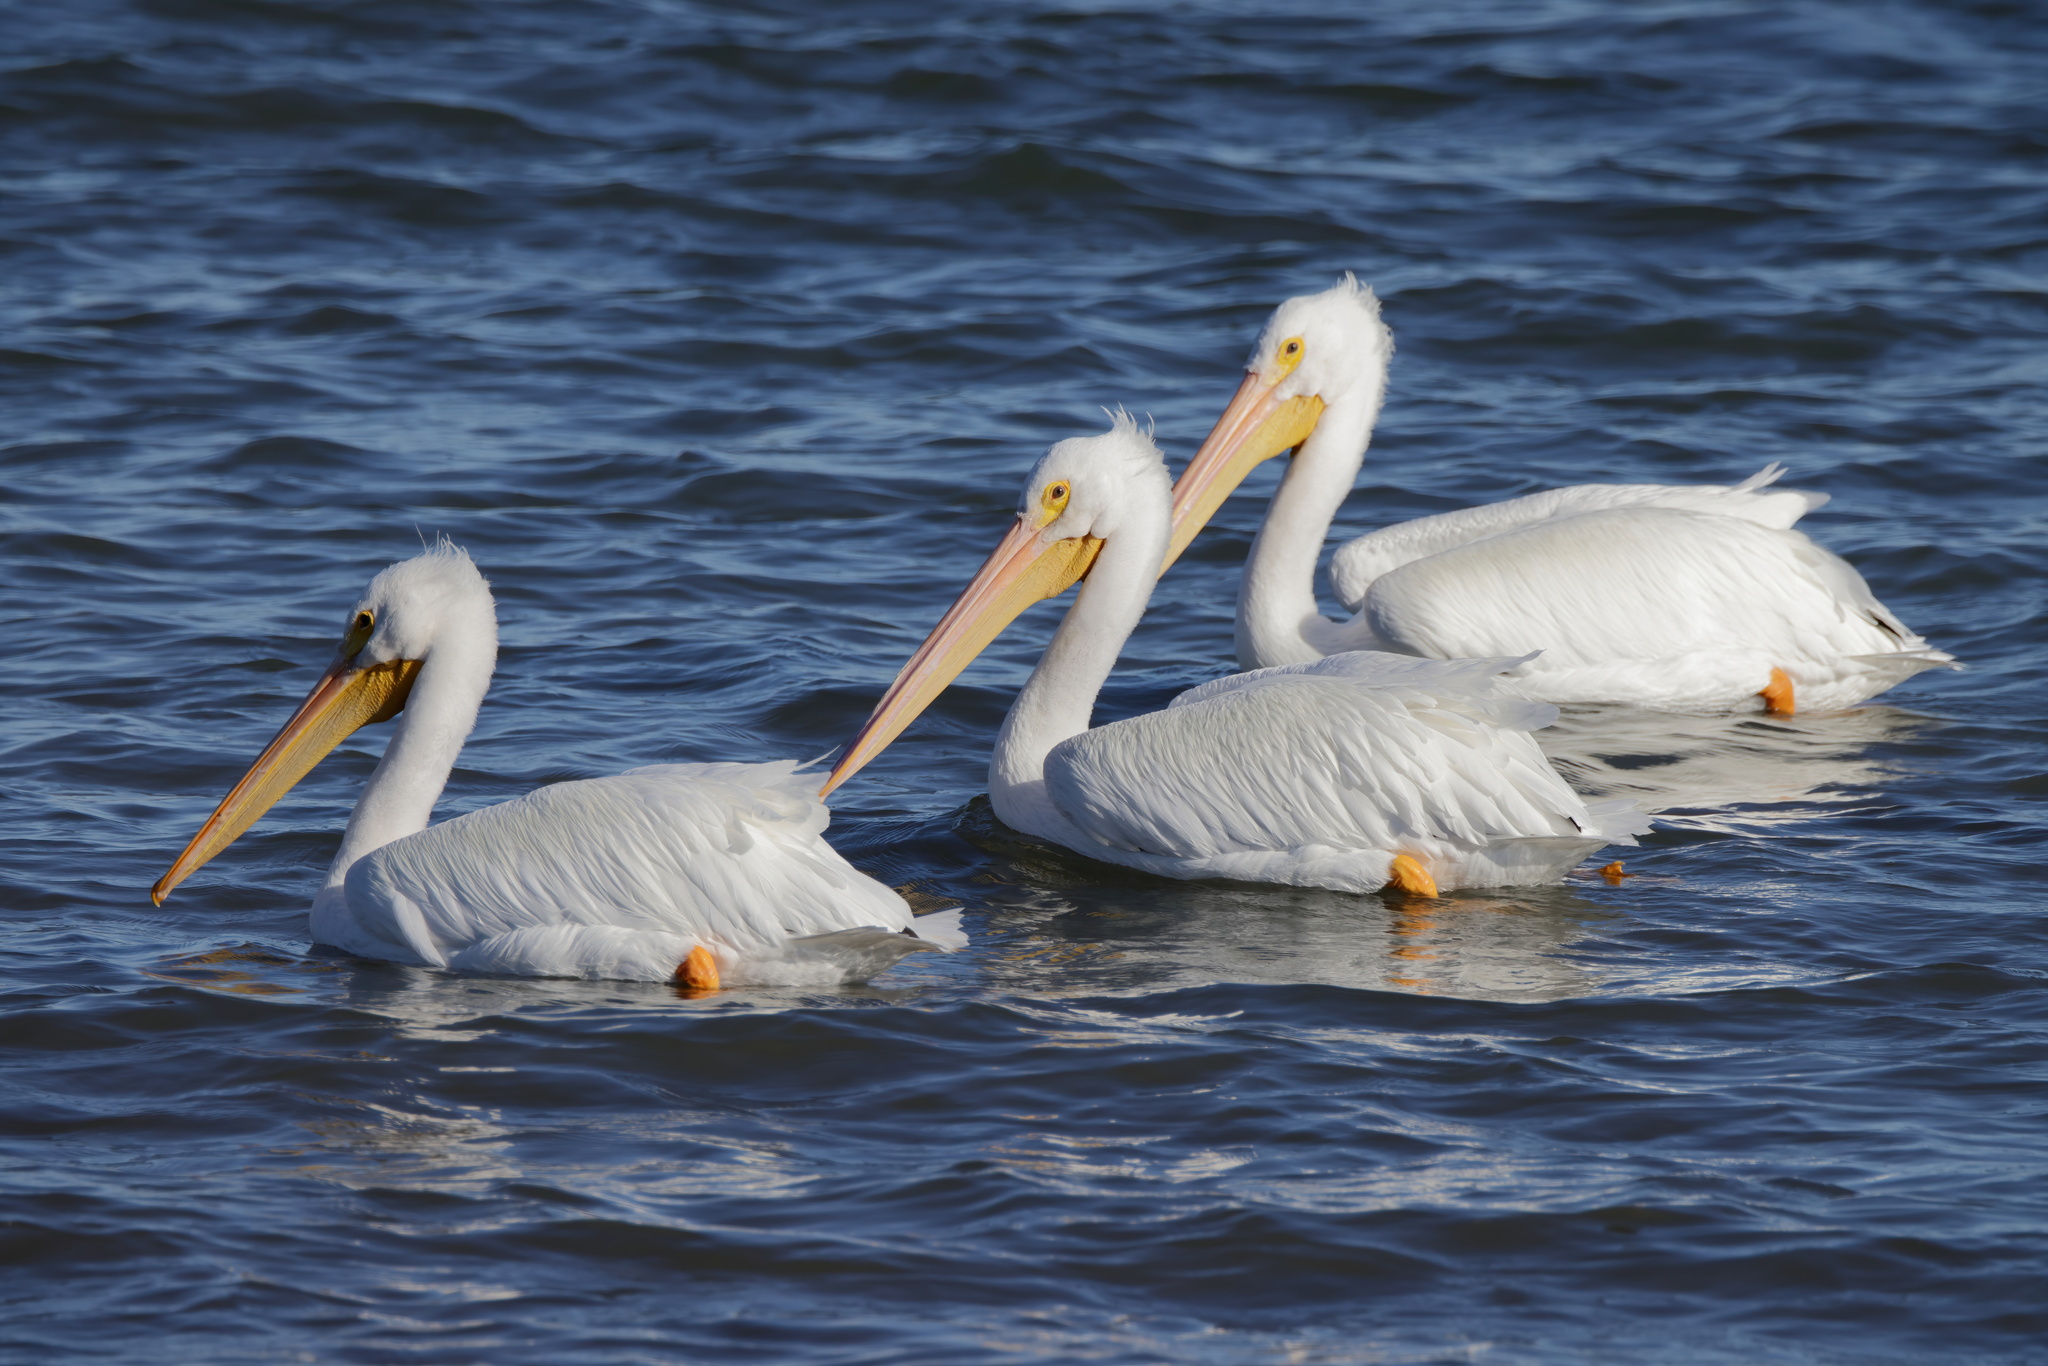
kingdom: Animalia
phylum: Chordata
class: Aves
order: Pelecaniformes
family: Pelecanidae
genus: Pelecanus
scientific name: Pelecanus erythrorhynchos
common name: American white pelican
